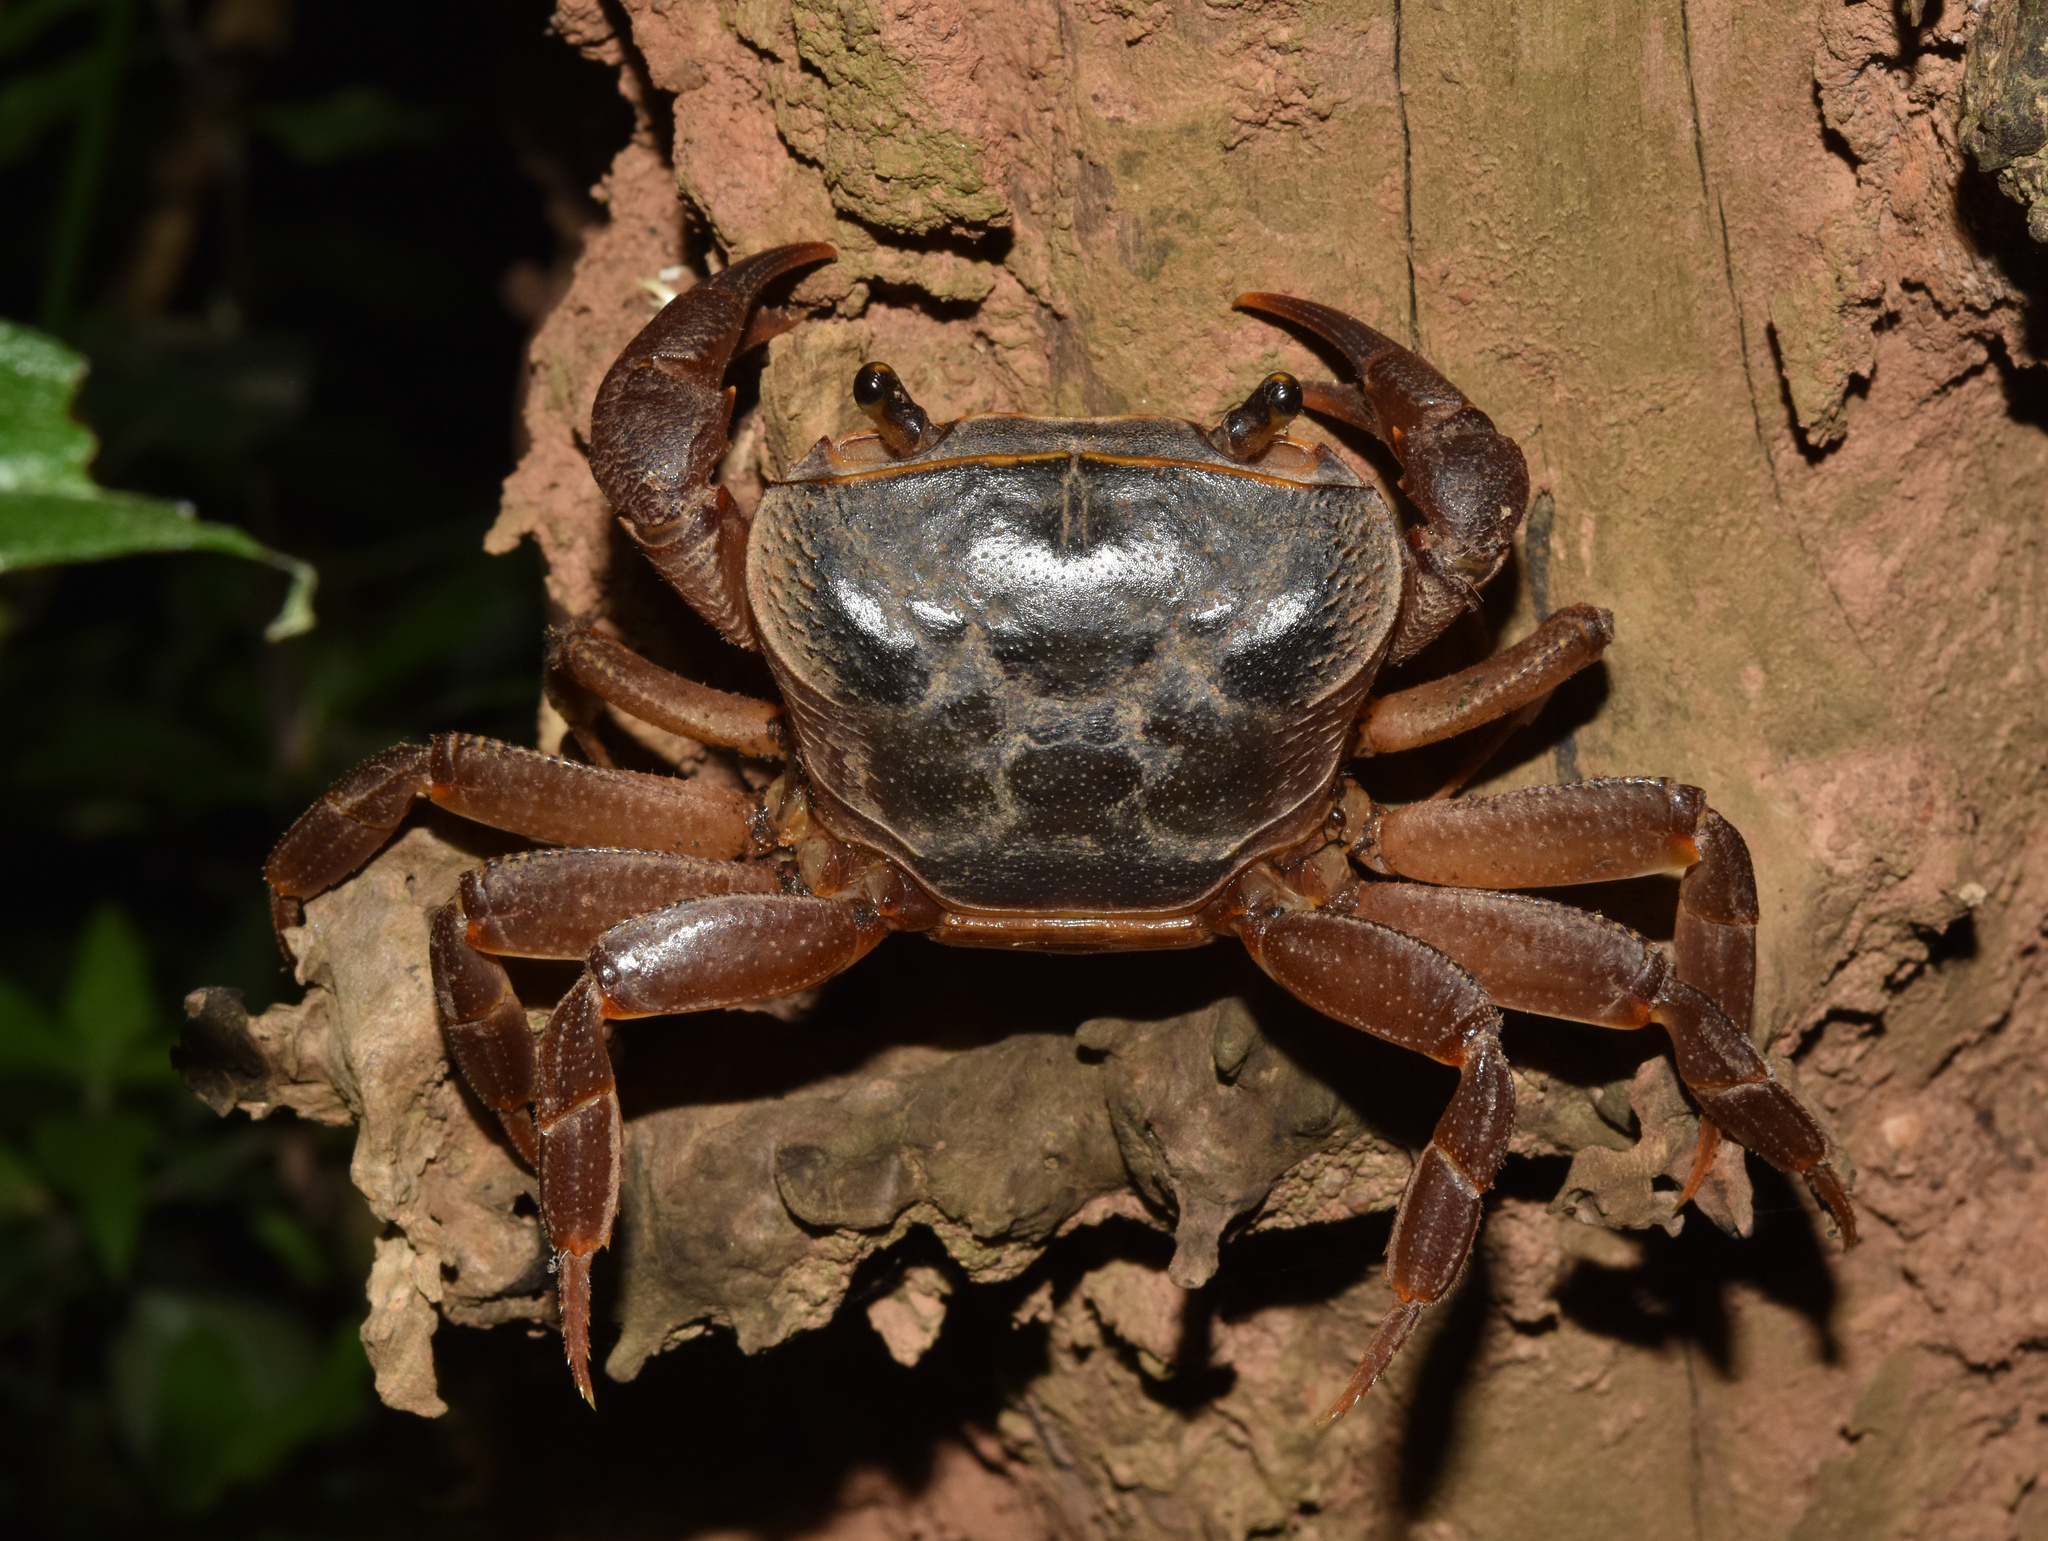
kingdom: Animalia
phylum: Arthropoda
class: Malacostraca
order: Decapoda
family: Potamonautidae
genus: Potamonautes
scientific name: Potamonautes sidneyi
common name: Natal river crab
